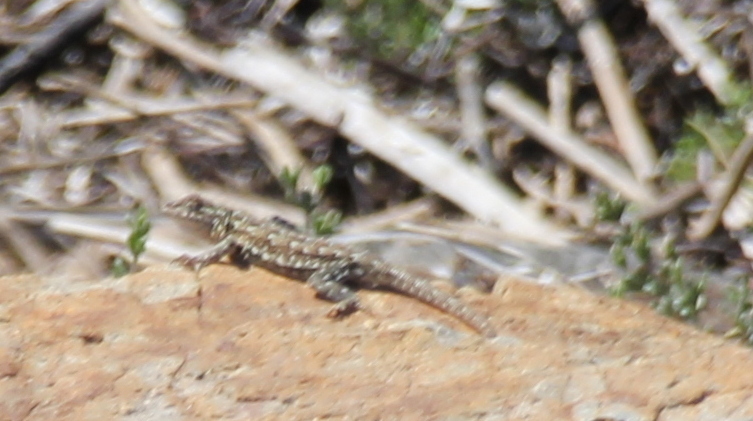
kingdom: Animalia
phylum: Chordata
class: Squamata
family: Phrynosomatidae
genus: Uta
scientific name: Uta stansburiana
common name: Side-blotched lizard
